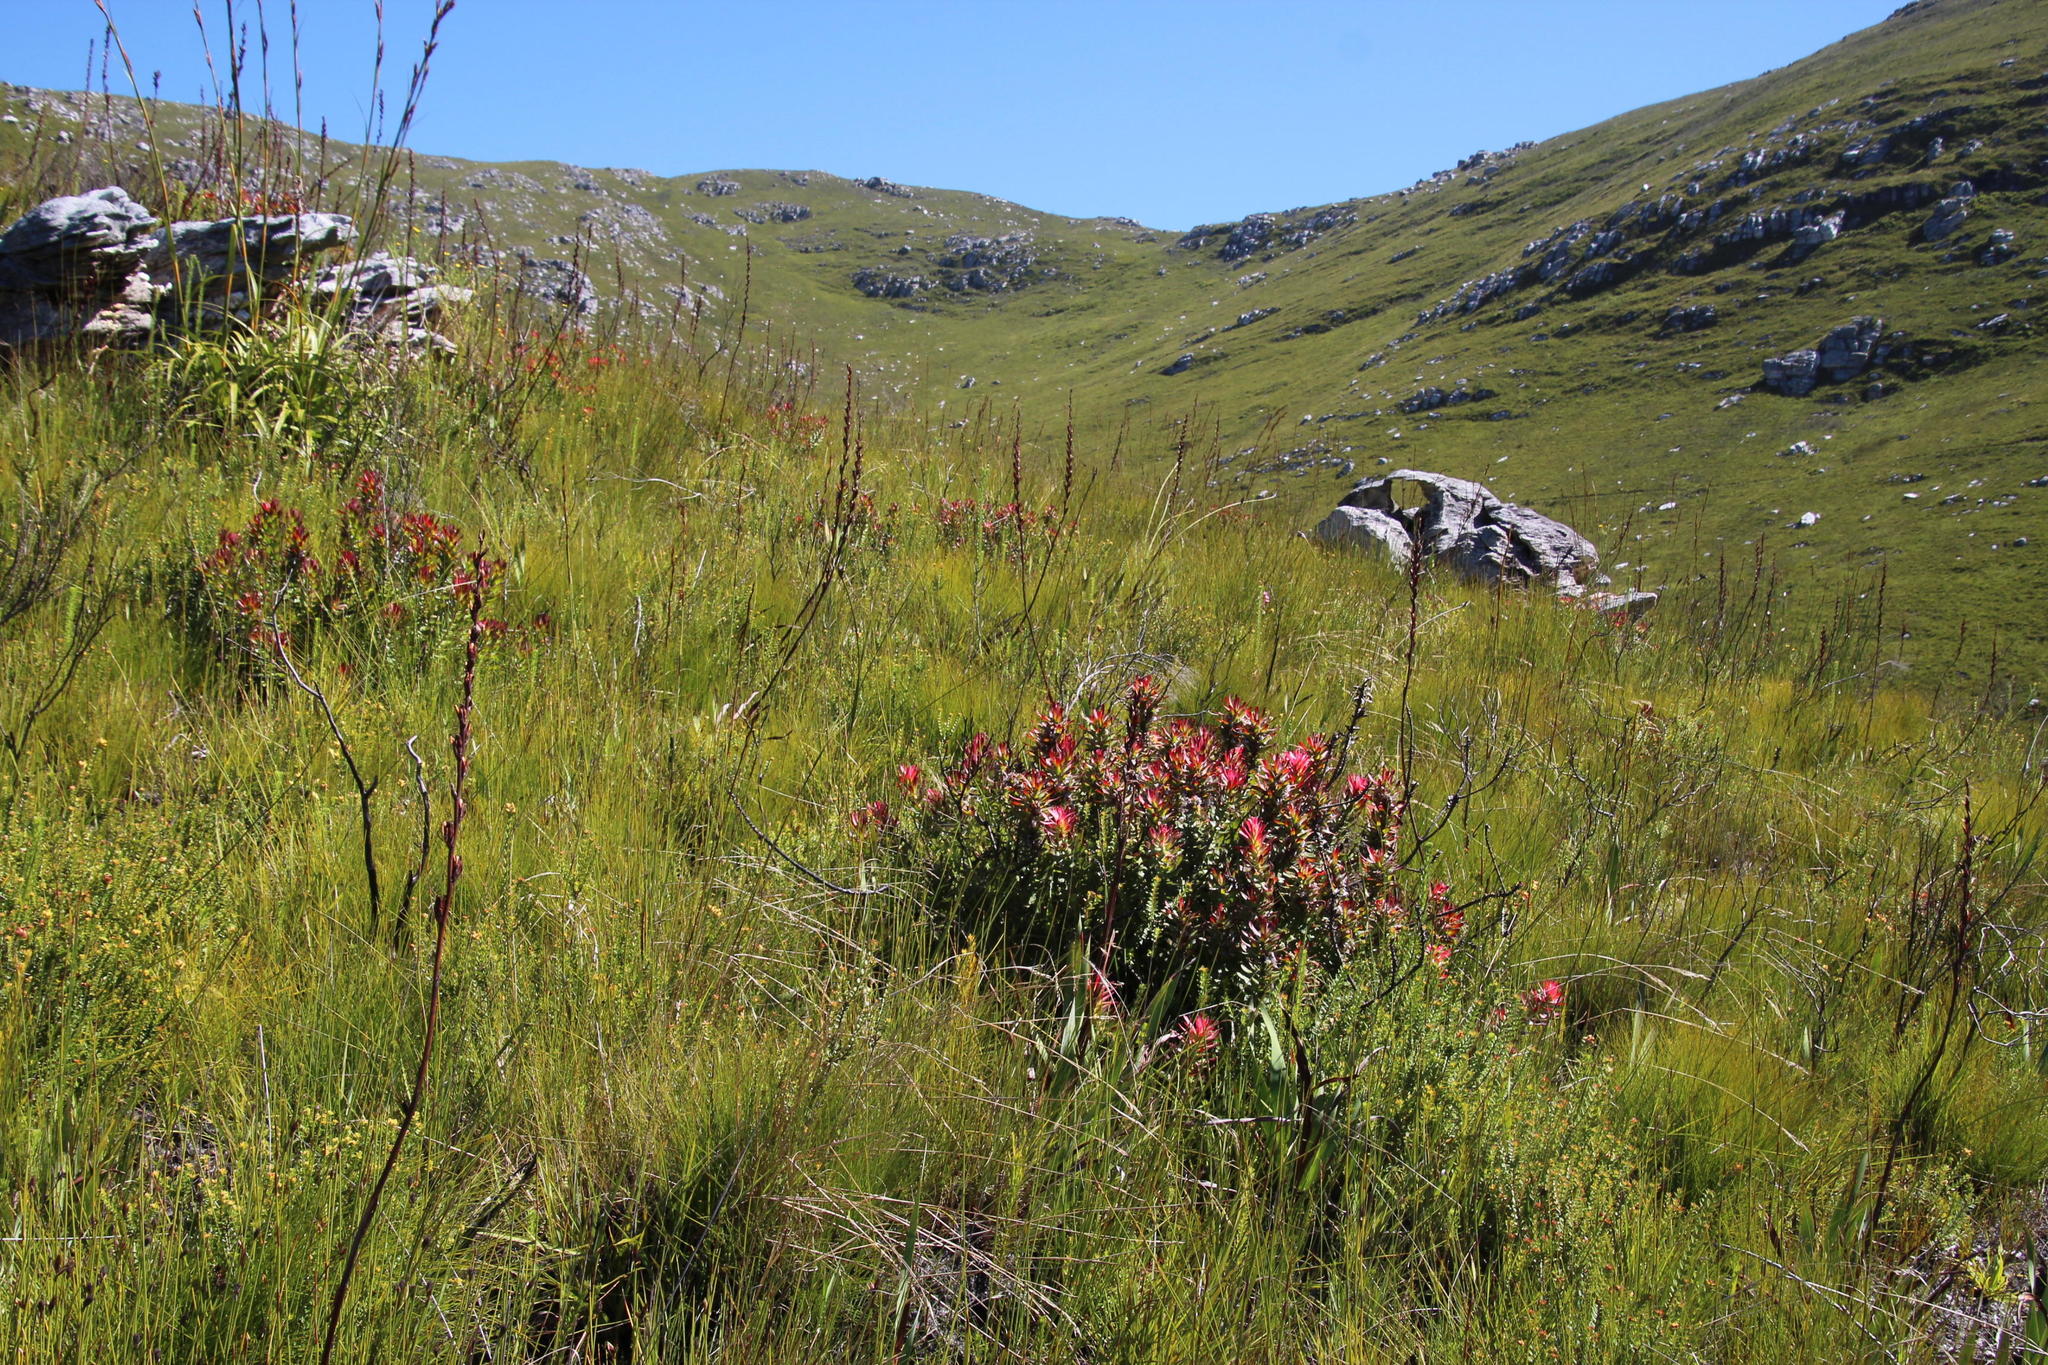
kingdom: Plantae
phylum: Tracheophyta
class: Magnoliopsida
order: Proteales
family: Proteaceae
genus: Mimetes
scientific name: Mimetes cucullatus
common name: Common pagoda
